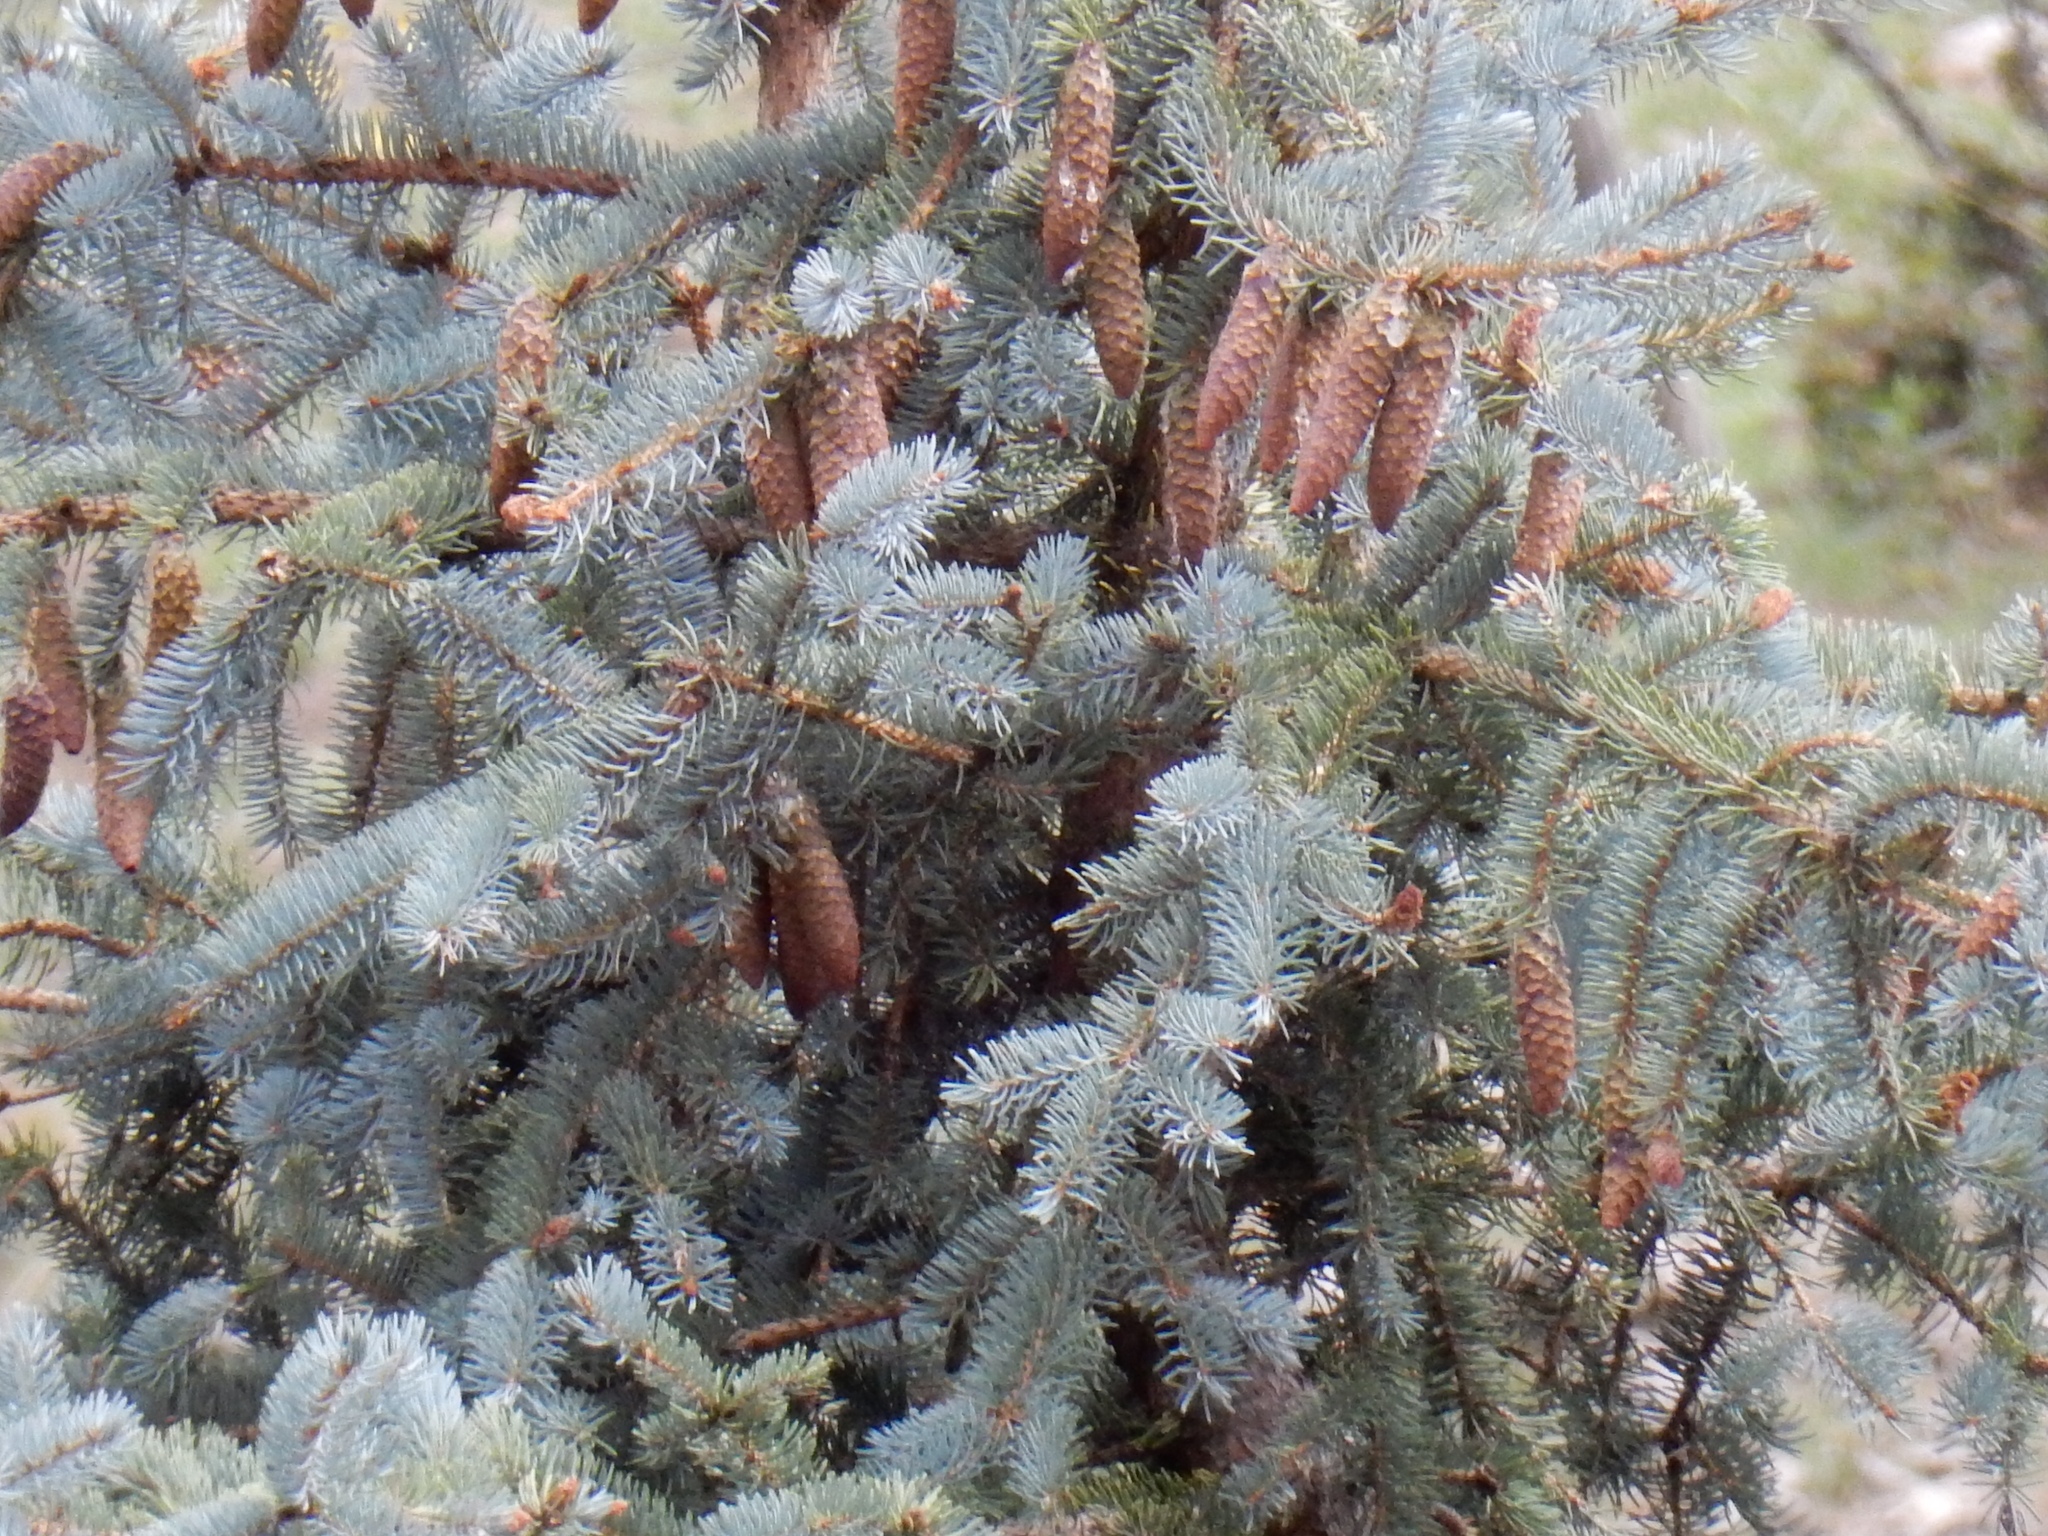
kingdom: Plantae
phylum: Tracheophyta
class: Pinopsida
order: Pinales
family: Pinaceae
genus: Picea
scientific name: Picea engelmannii
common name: Engelmann spruce
